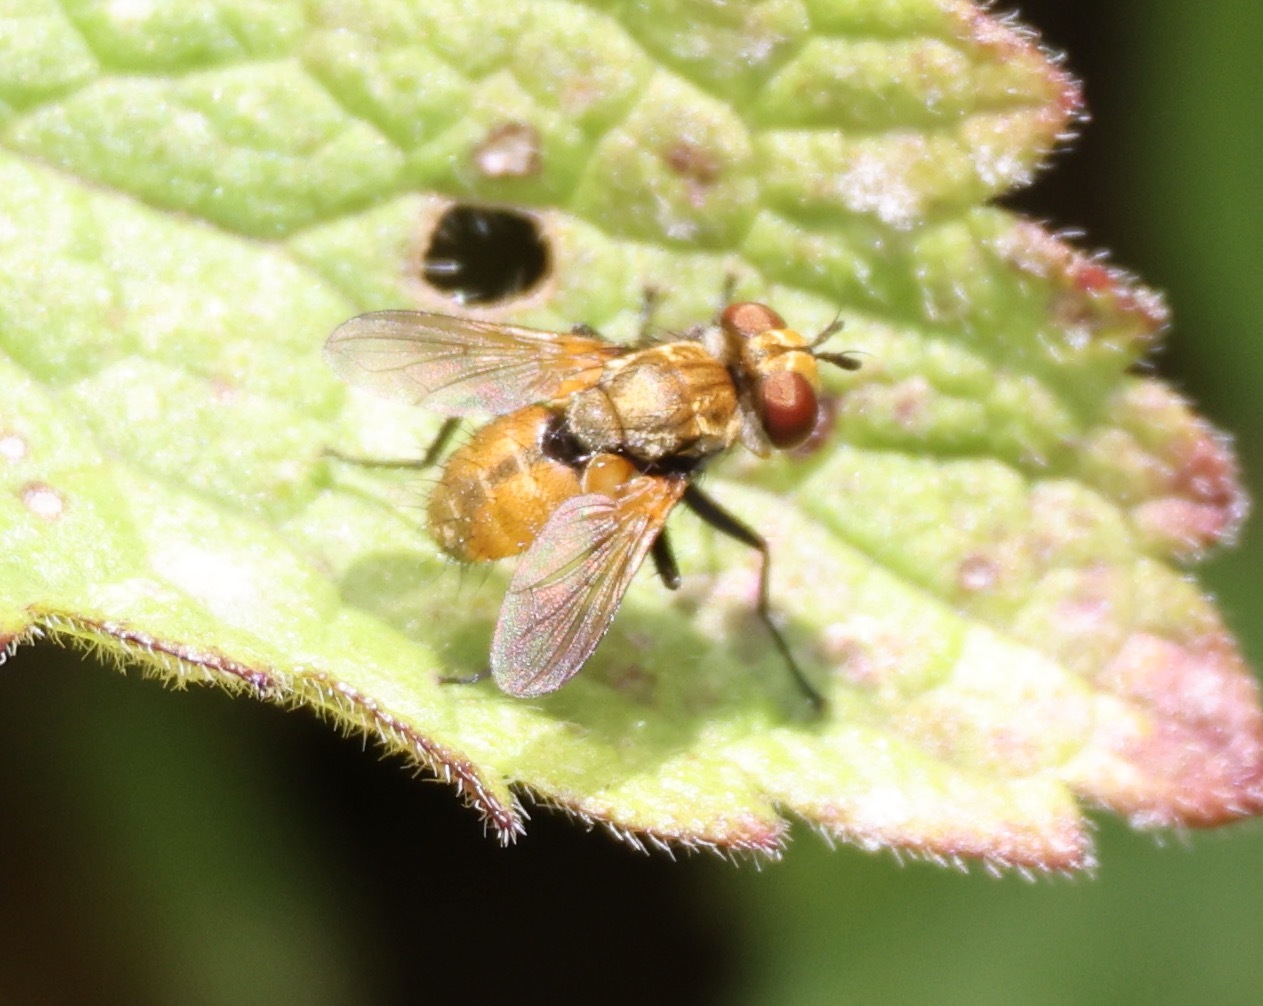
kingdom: Animalia
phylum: Arthropoda
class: Insecta
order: Diptera
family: Tachinidae
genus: Eliozeta
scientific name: Eliozeta pellucens
